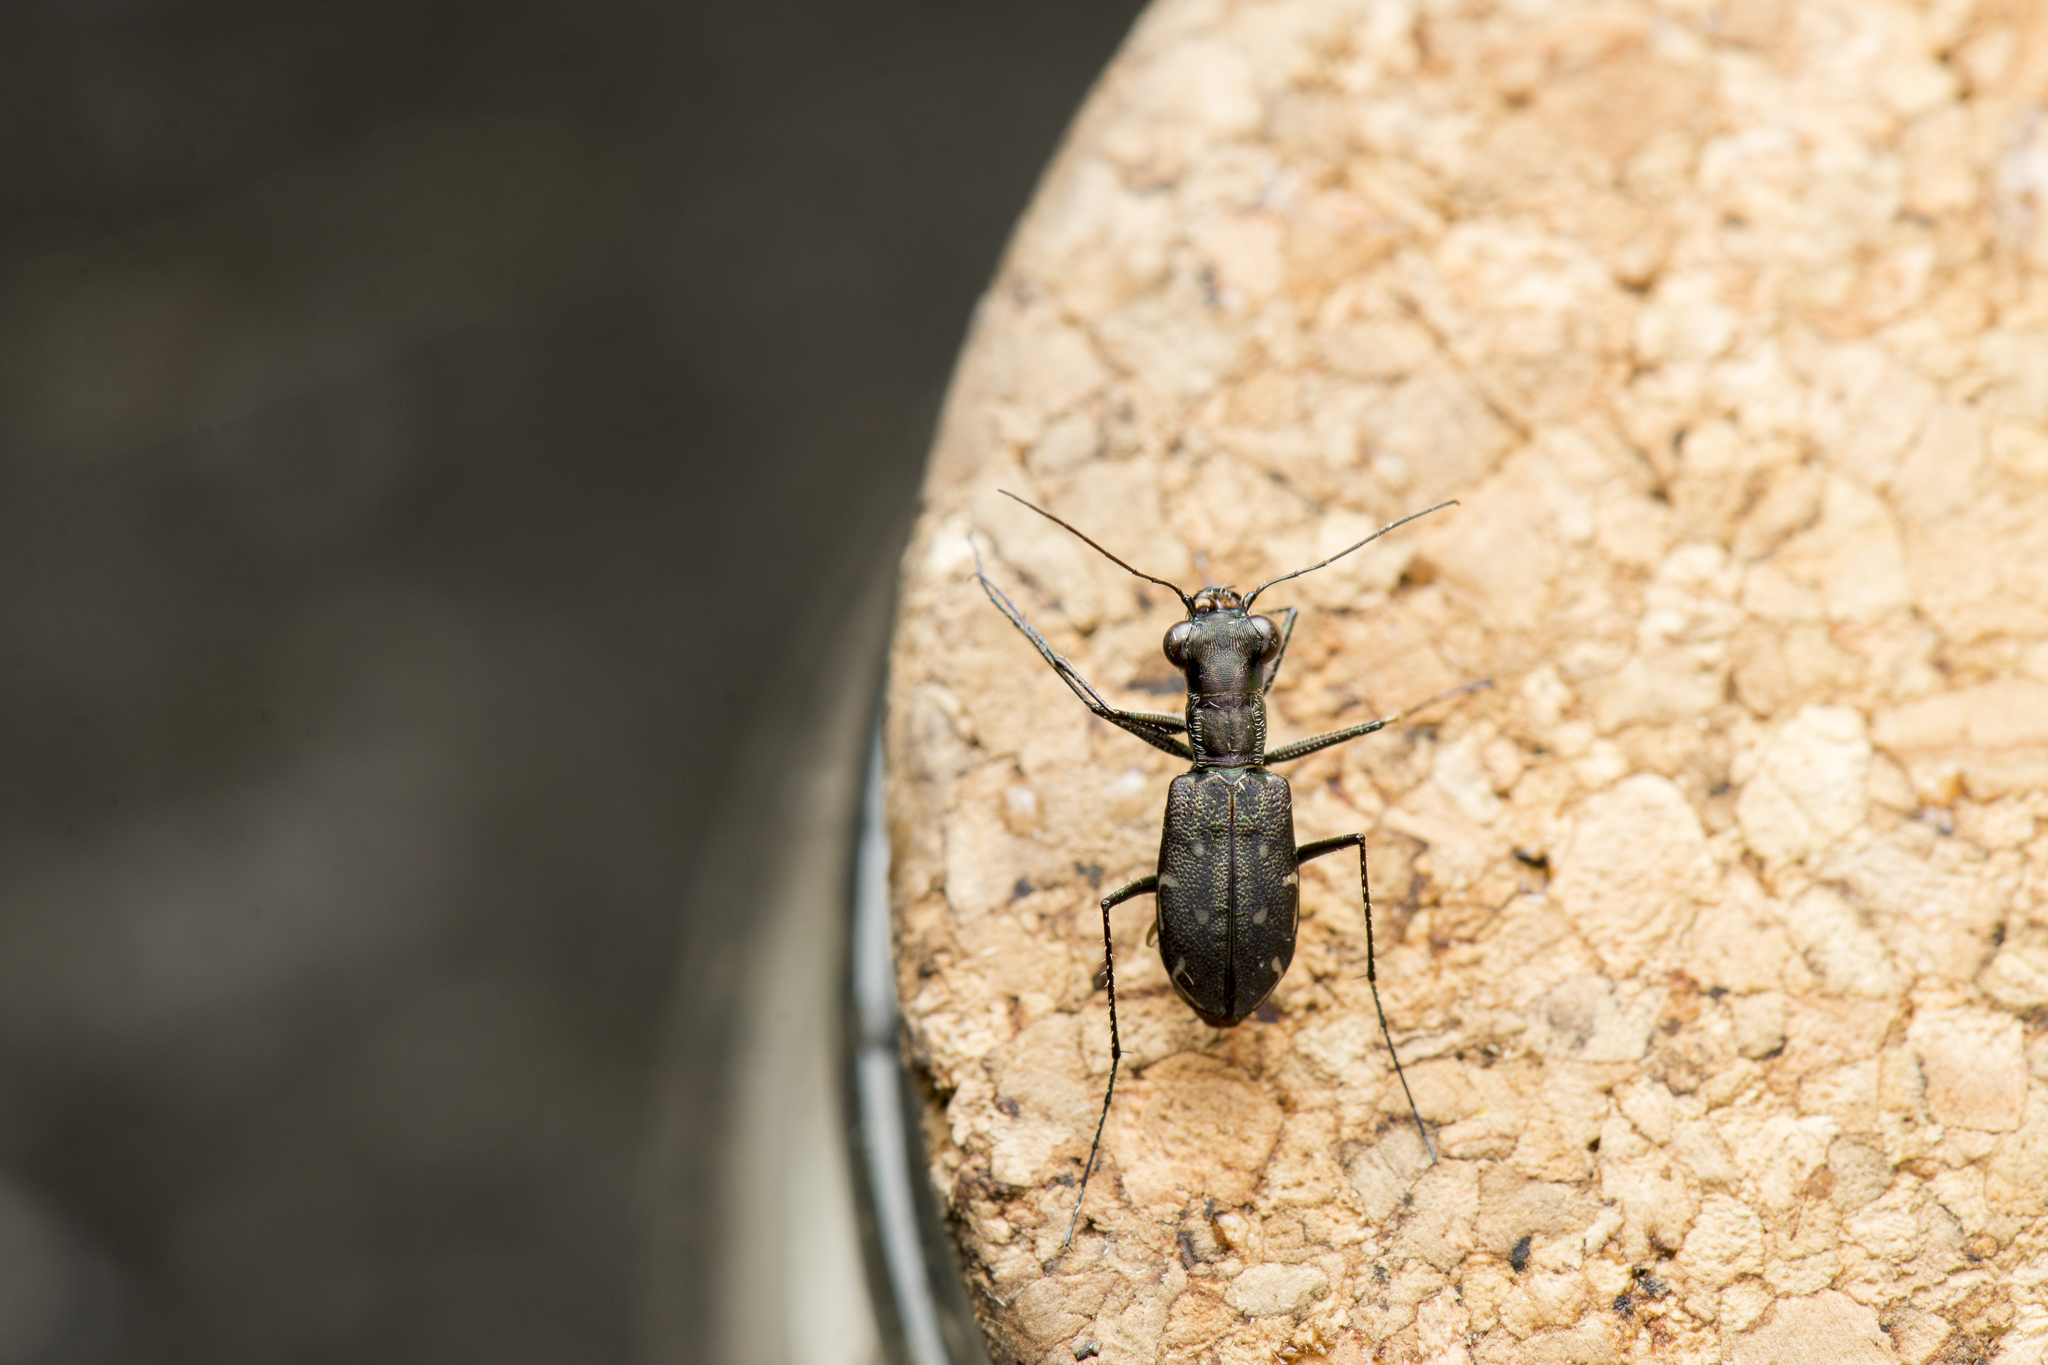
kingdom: Animalia
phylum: Arthropoda
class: Insecta
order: Coleoptera
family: Carabidae
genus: Cylindera
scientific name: Cylindera kaleea
